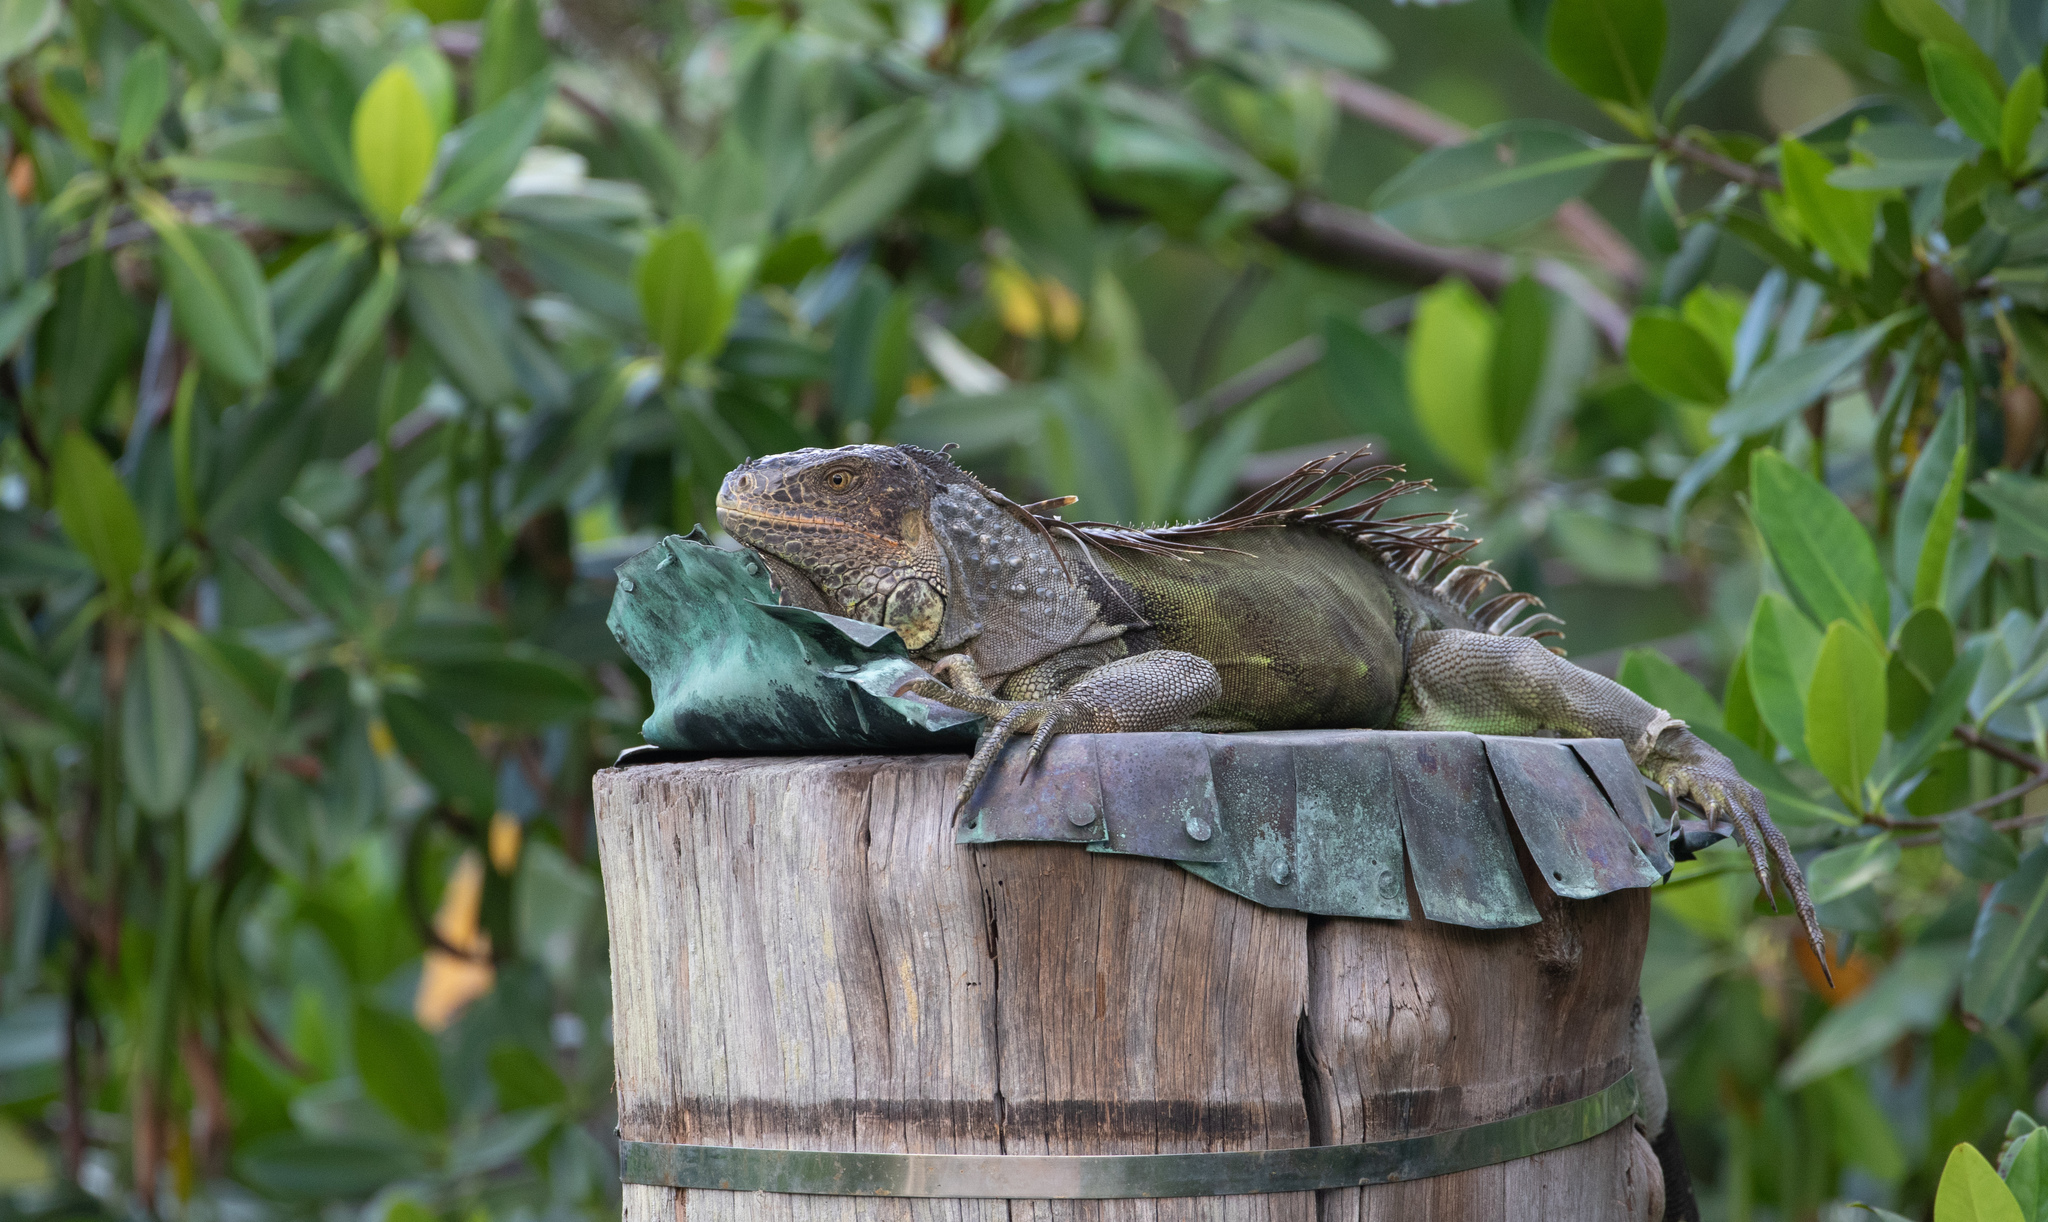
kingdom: Animalia
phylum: Chordata
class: Squamata
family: Iguanidae
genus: Iguana
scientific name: Iguana iguana
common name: Green iguana
